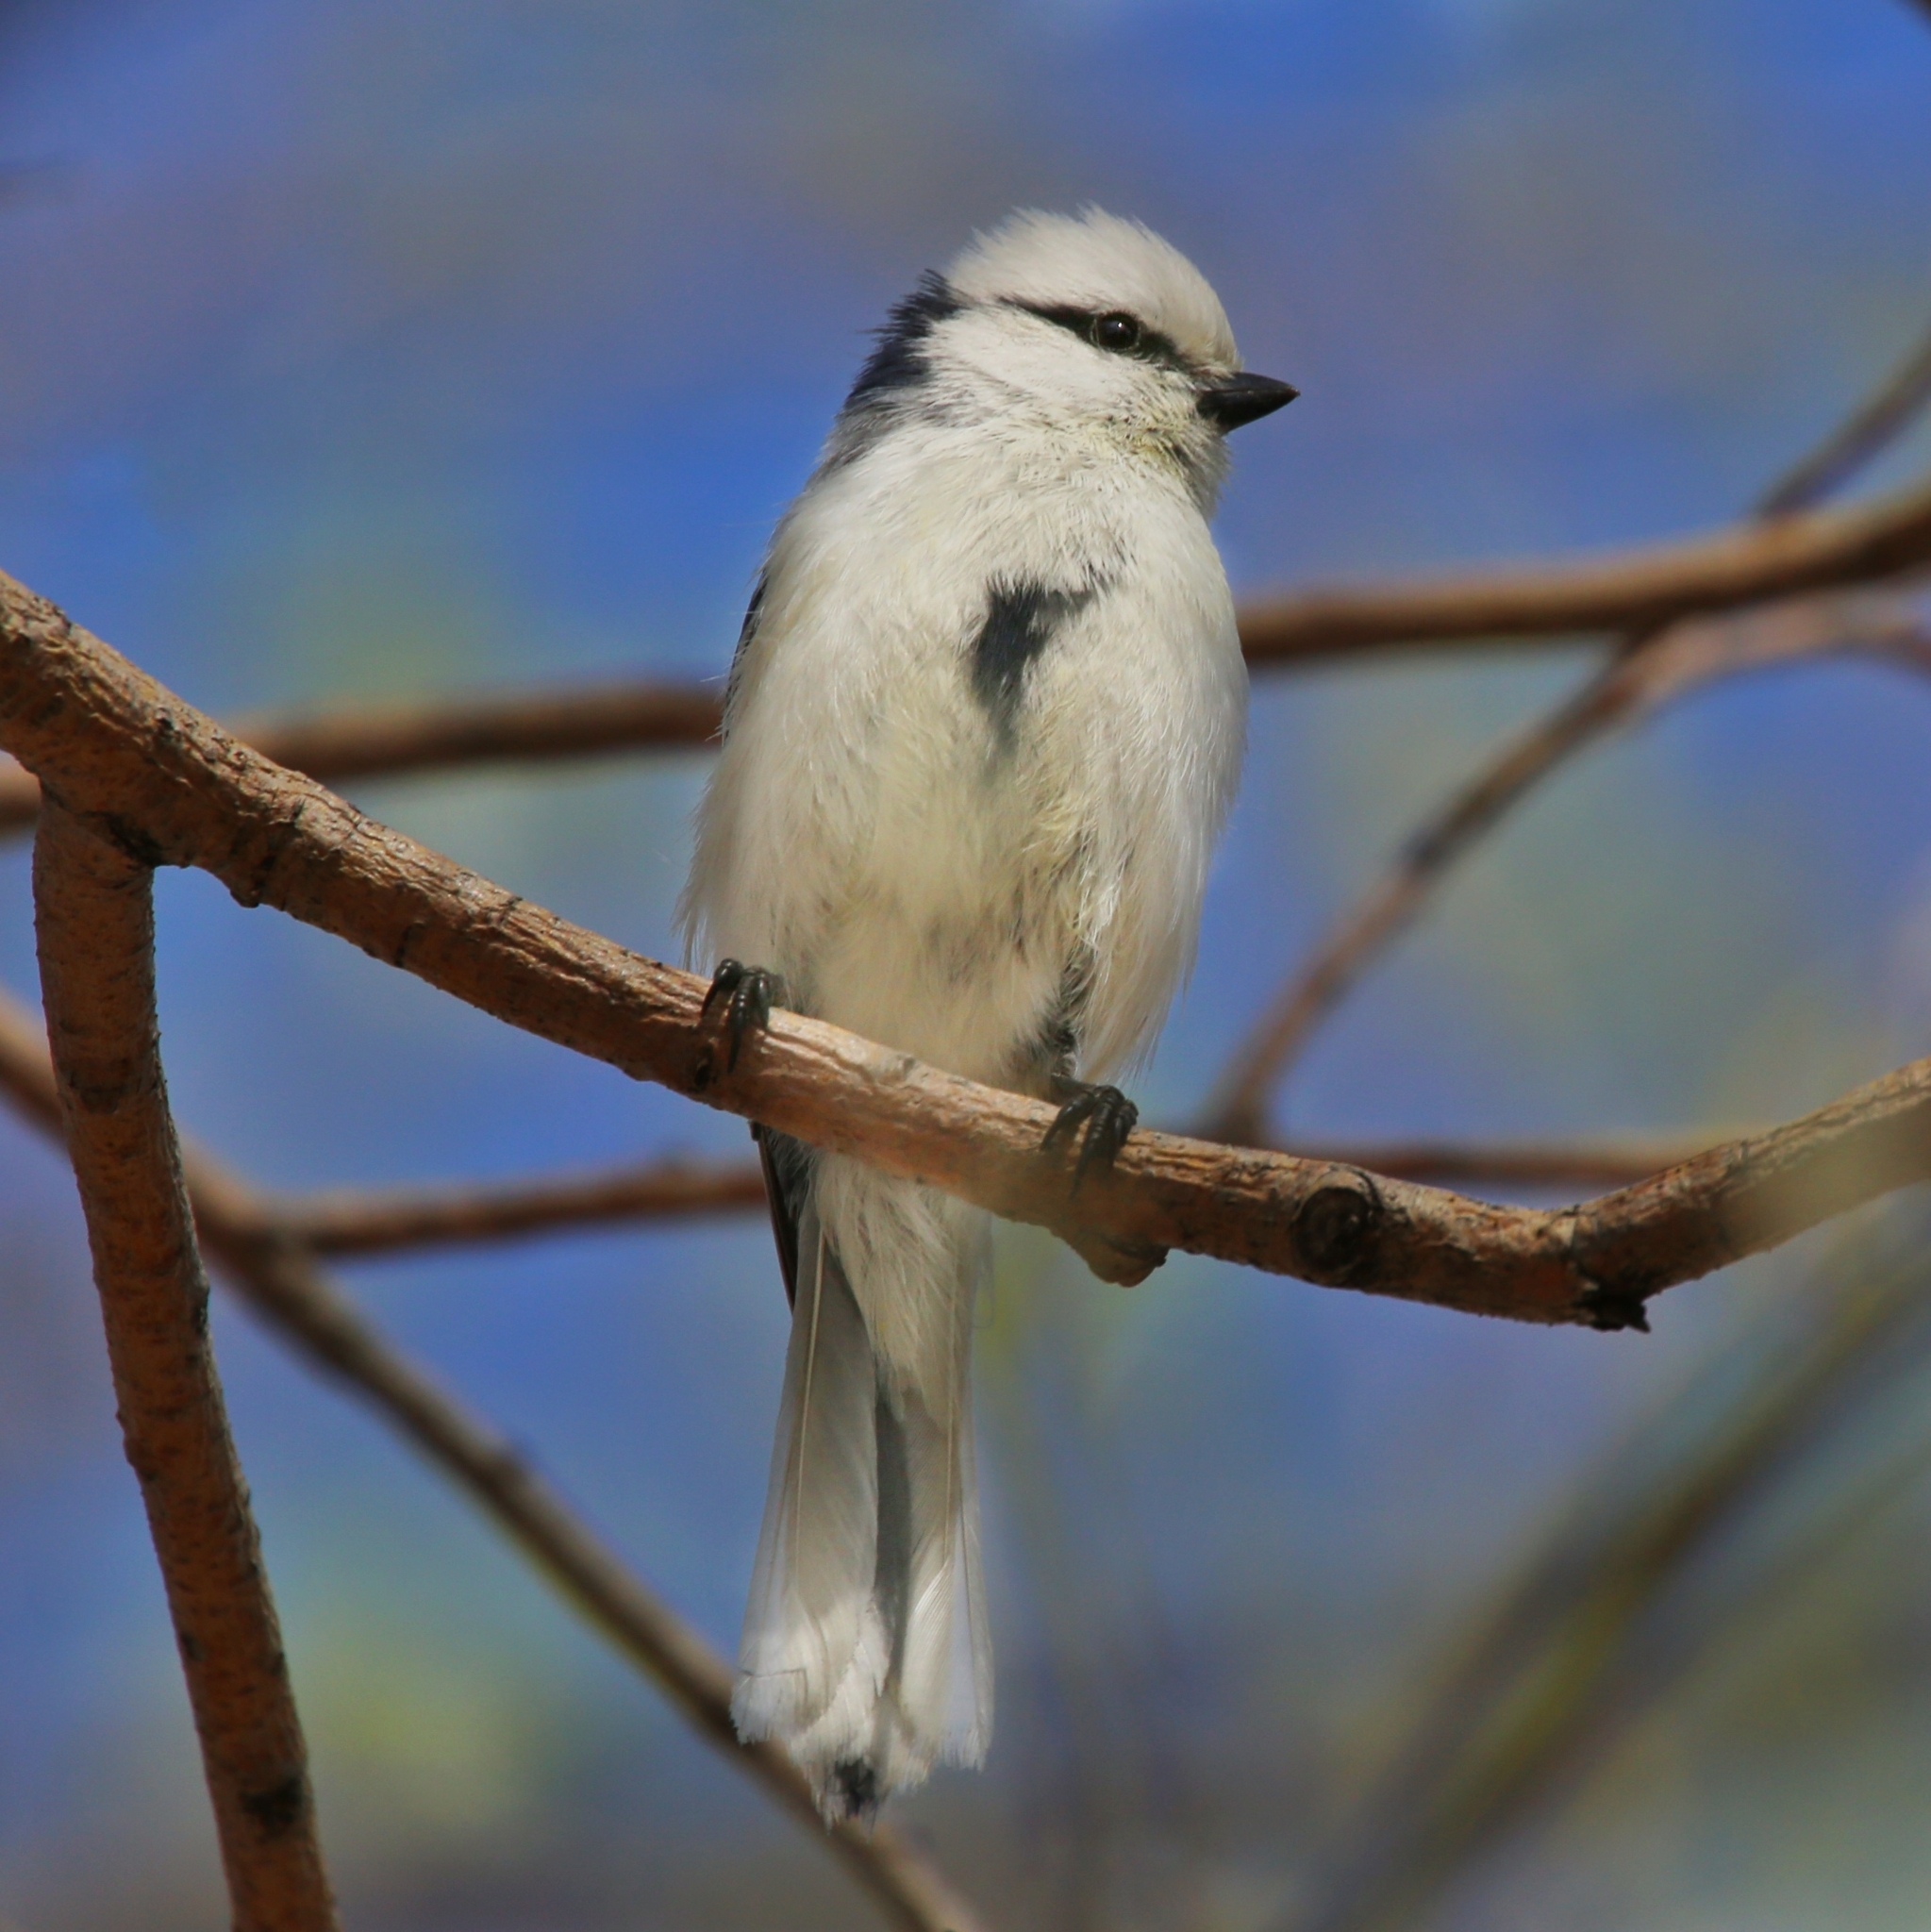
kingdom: Animalia
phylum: Chordata
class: Aves
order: Passeriformes
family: Paridae
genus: Cyanistes
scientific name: Cyanistes cyanus
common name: Azure tit
